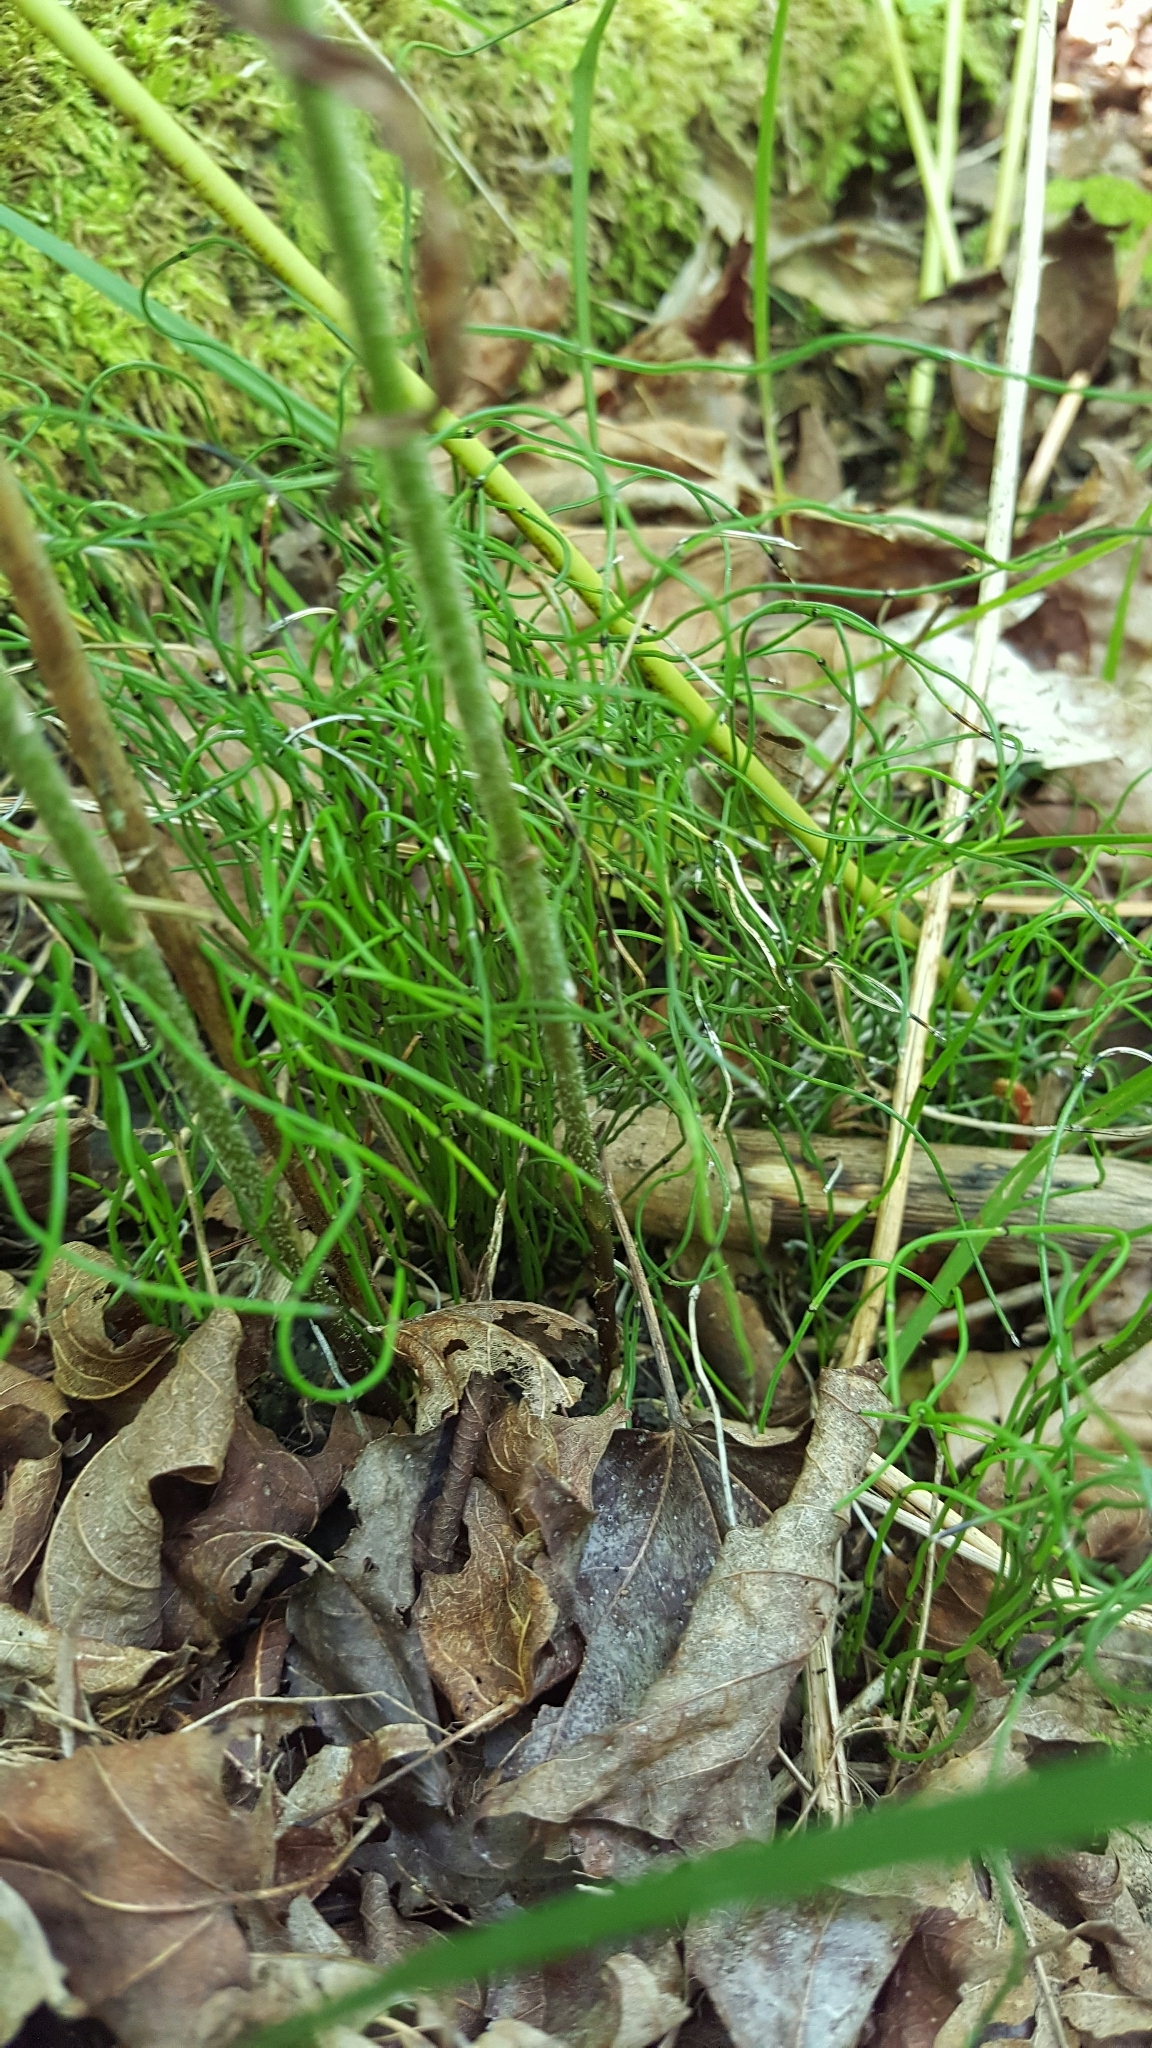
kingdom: Plantae
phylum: Tracheophyta
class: Polypodiopsida
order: Equisetales
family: Equisetaceae
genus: Equisetum
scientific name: Equisetum scirpoides
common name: Delicate horsetail
